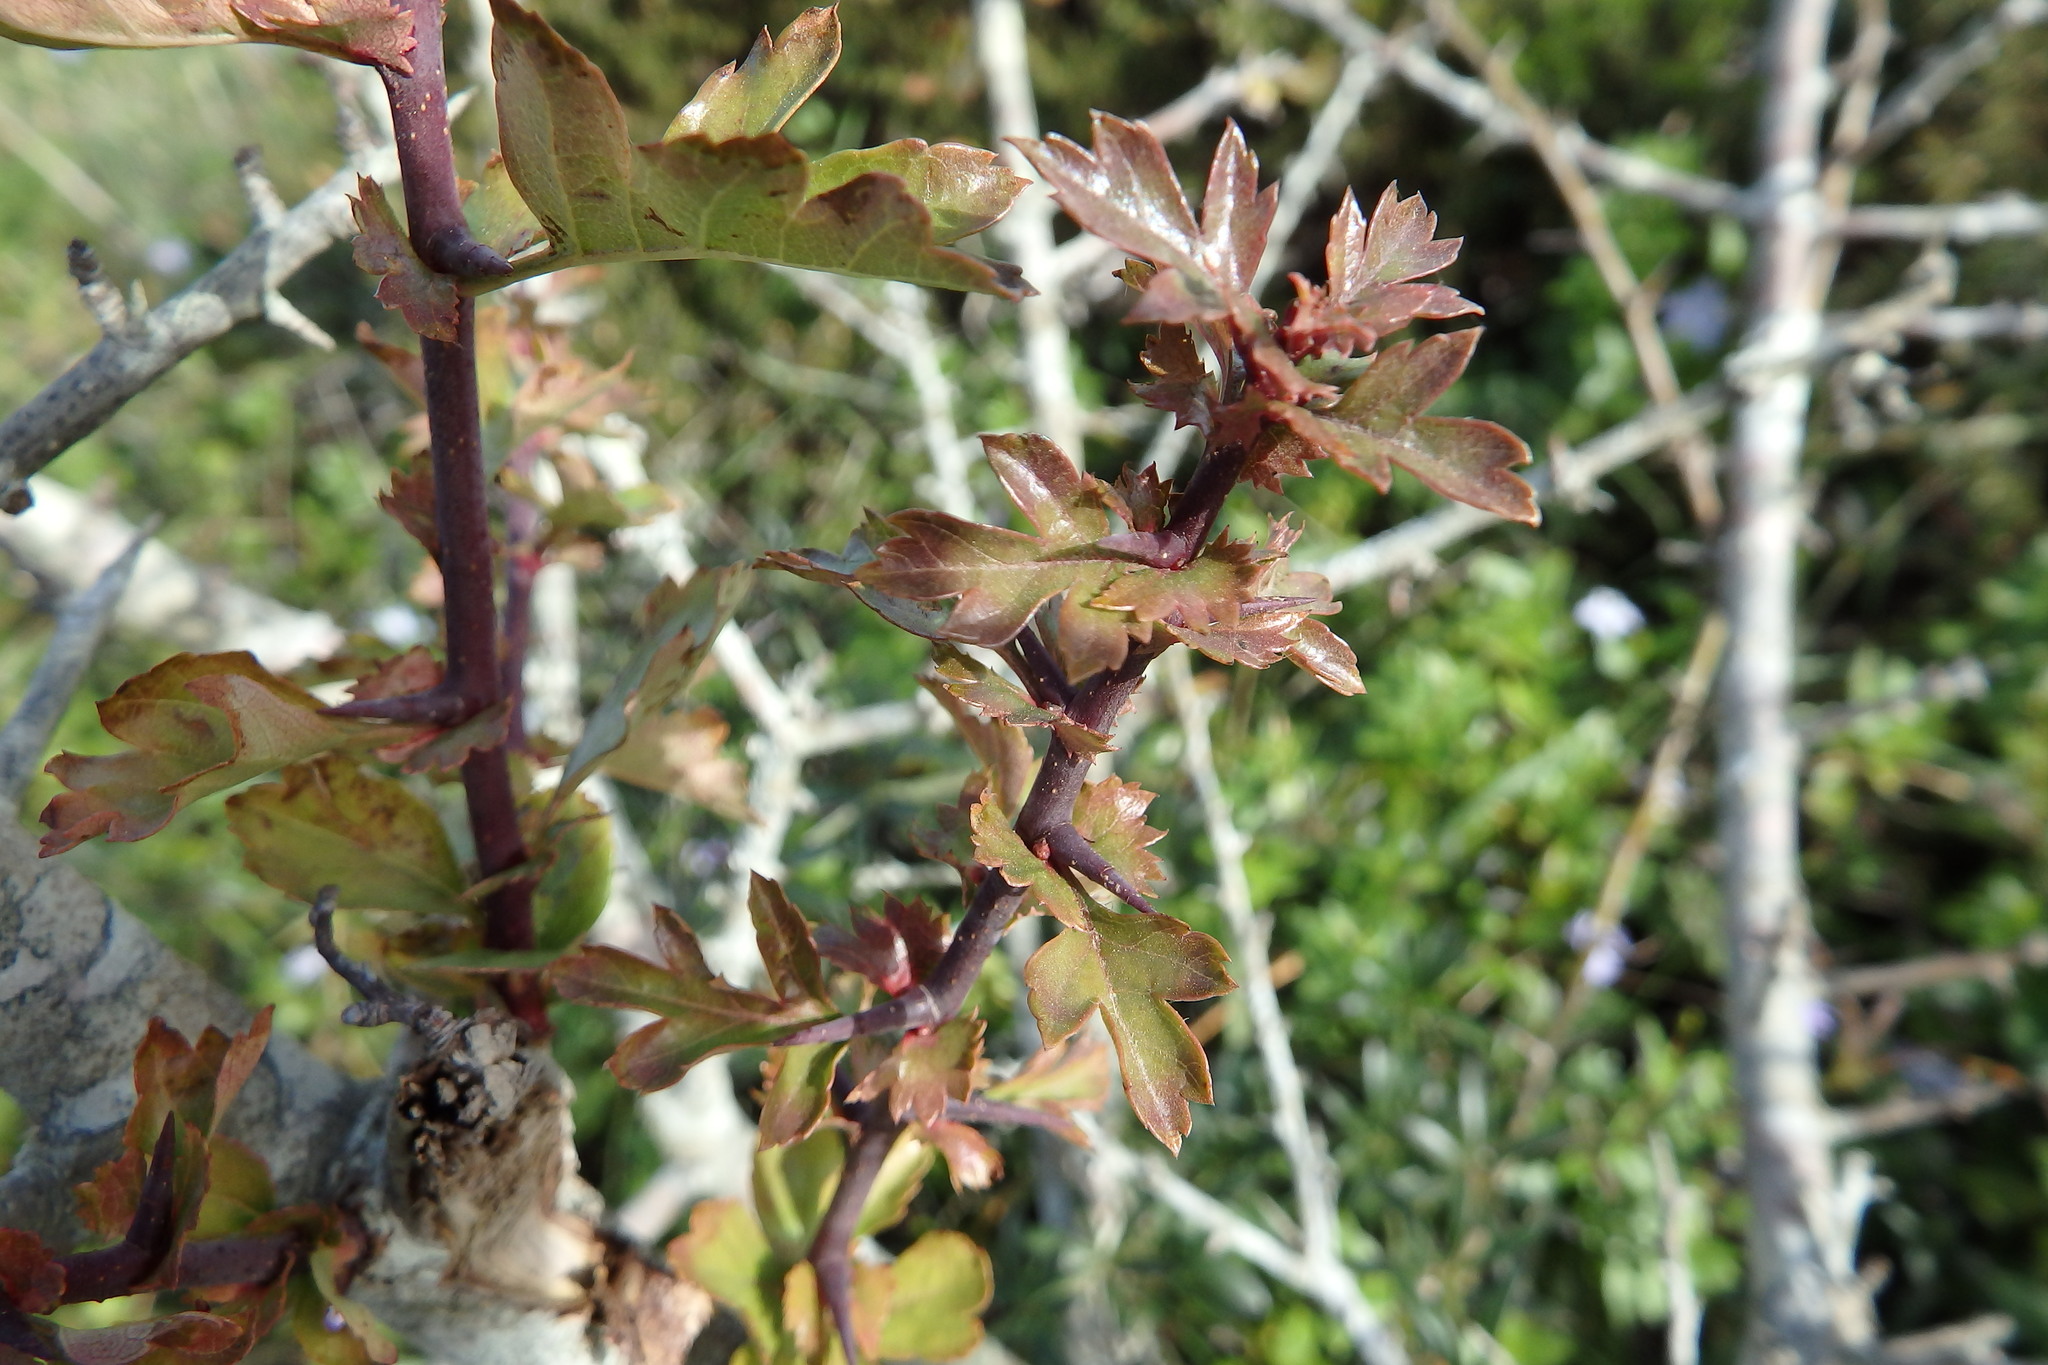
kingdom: Plantae
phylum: Tracheophyta
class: Magnoliopsida
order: Rosales
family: Rosaceae
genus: Crataegus
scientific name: Crataegus monogyna
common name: Hawthorn
